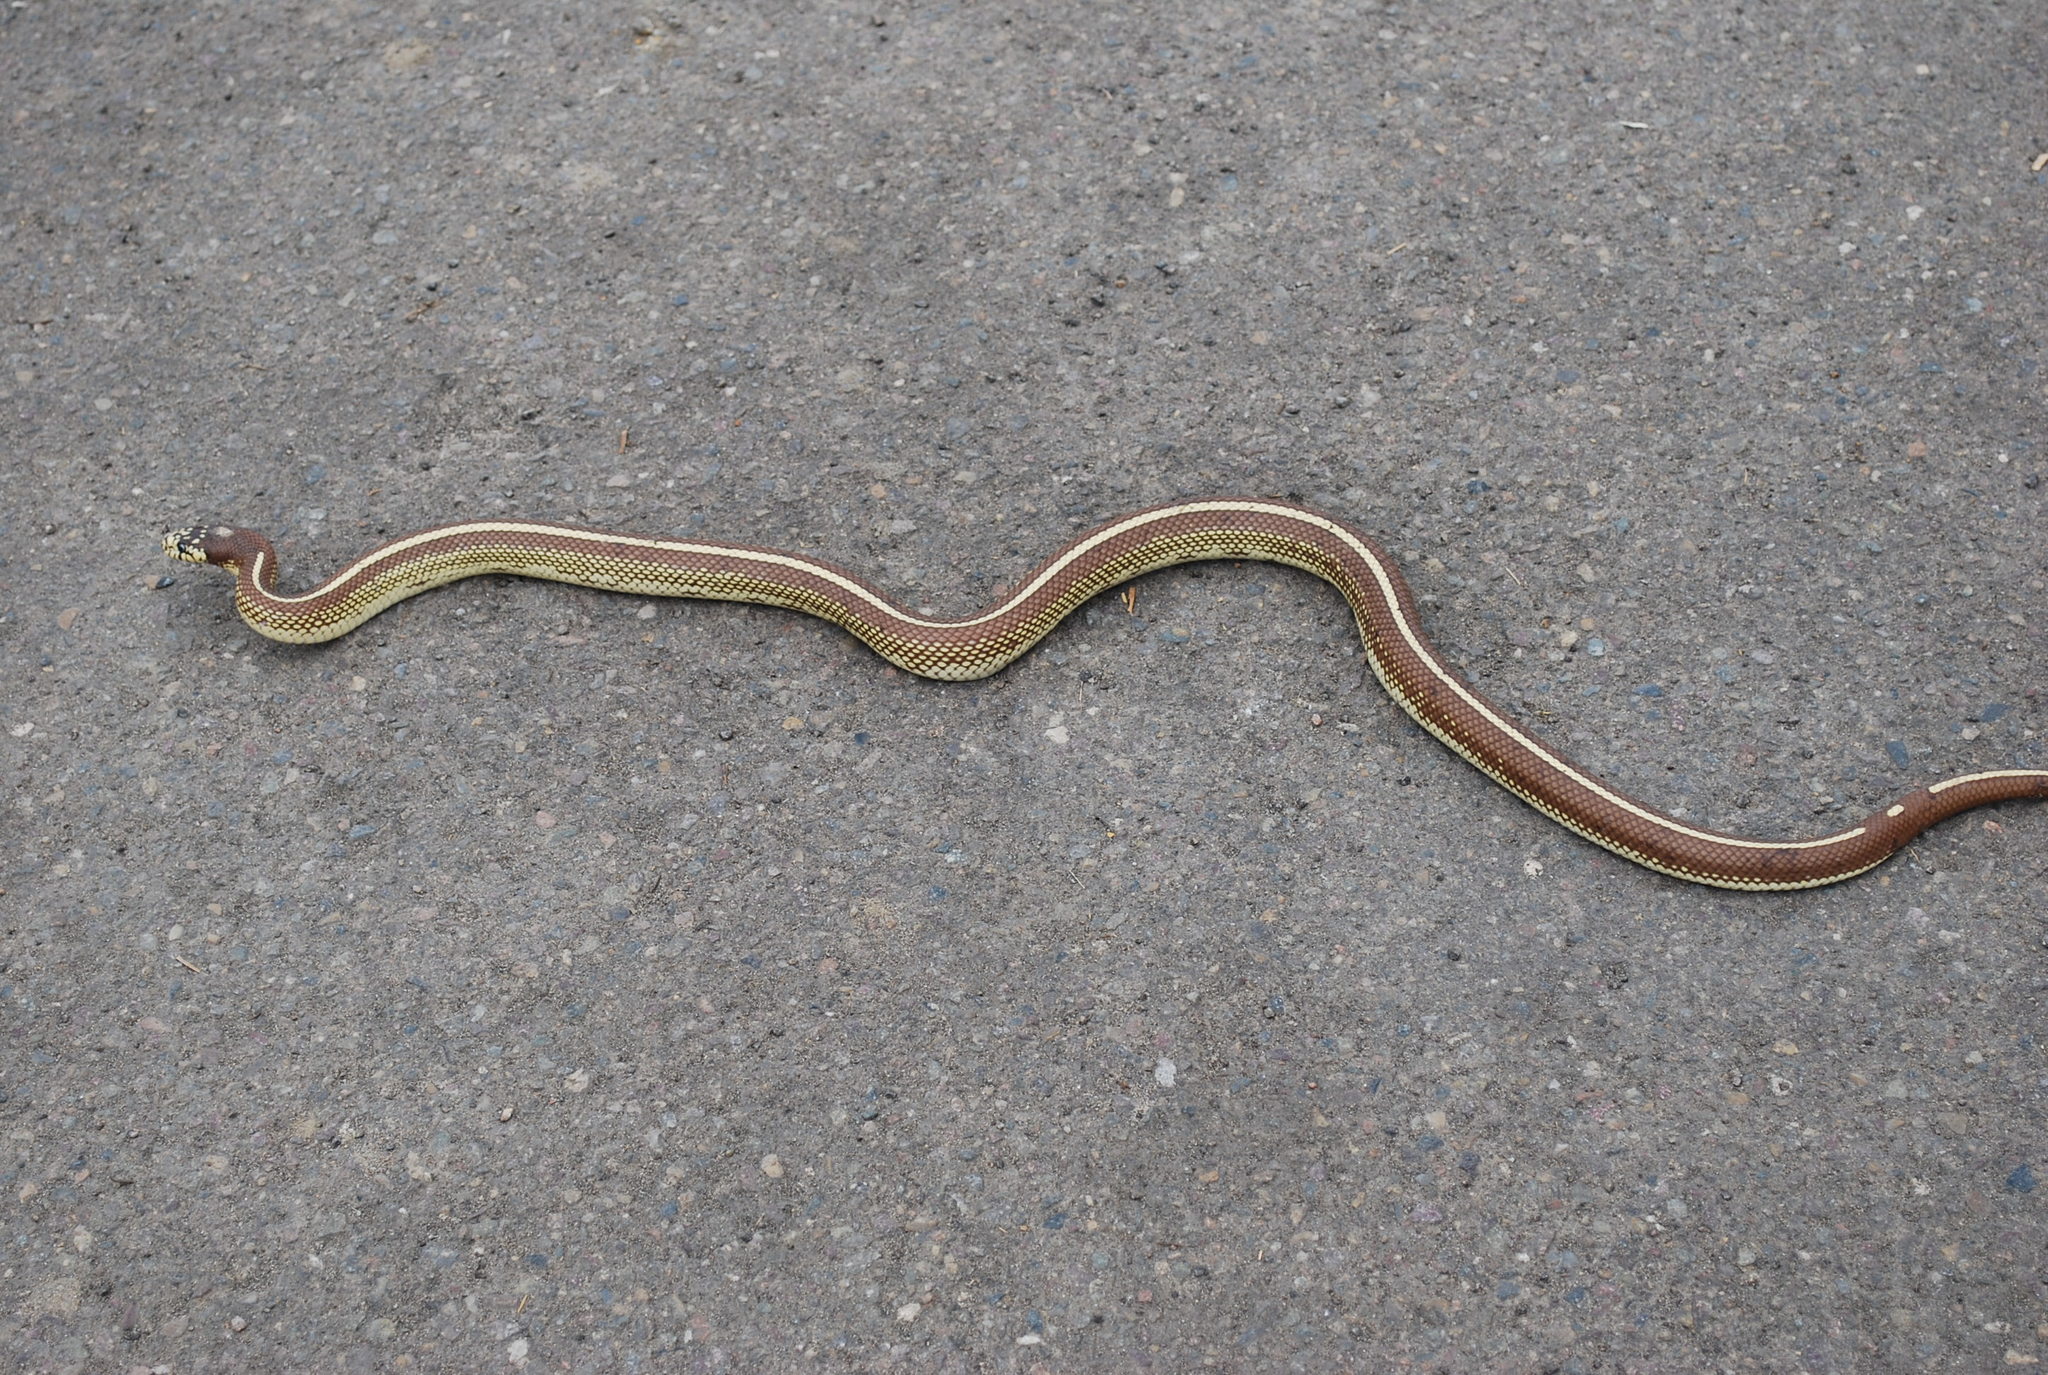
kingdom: Animalia
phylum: Chordata
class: Squamata
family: Colubridae
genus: Lampropeltis
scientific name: Lampropeltis californiae
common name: California kingsnake
